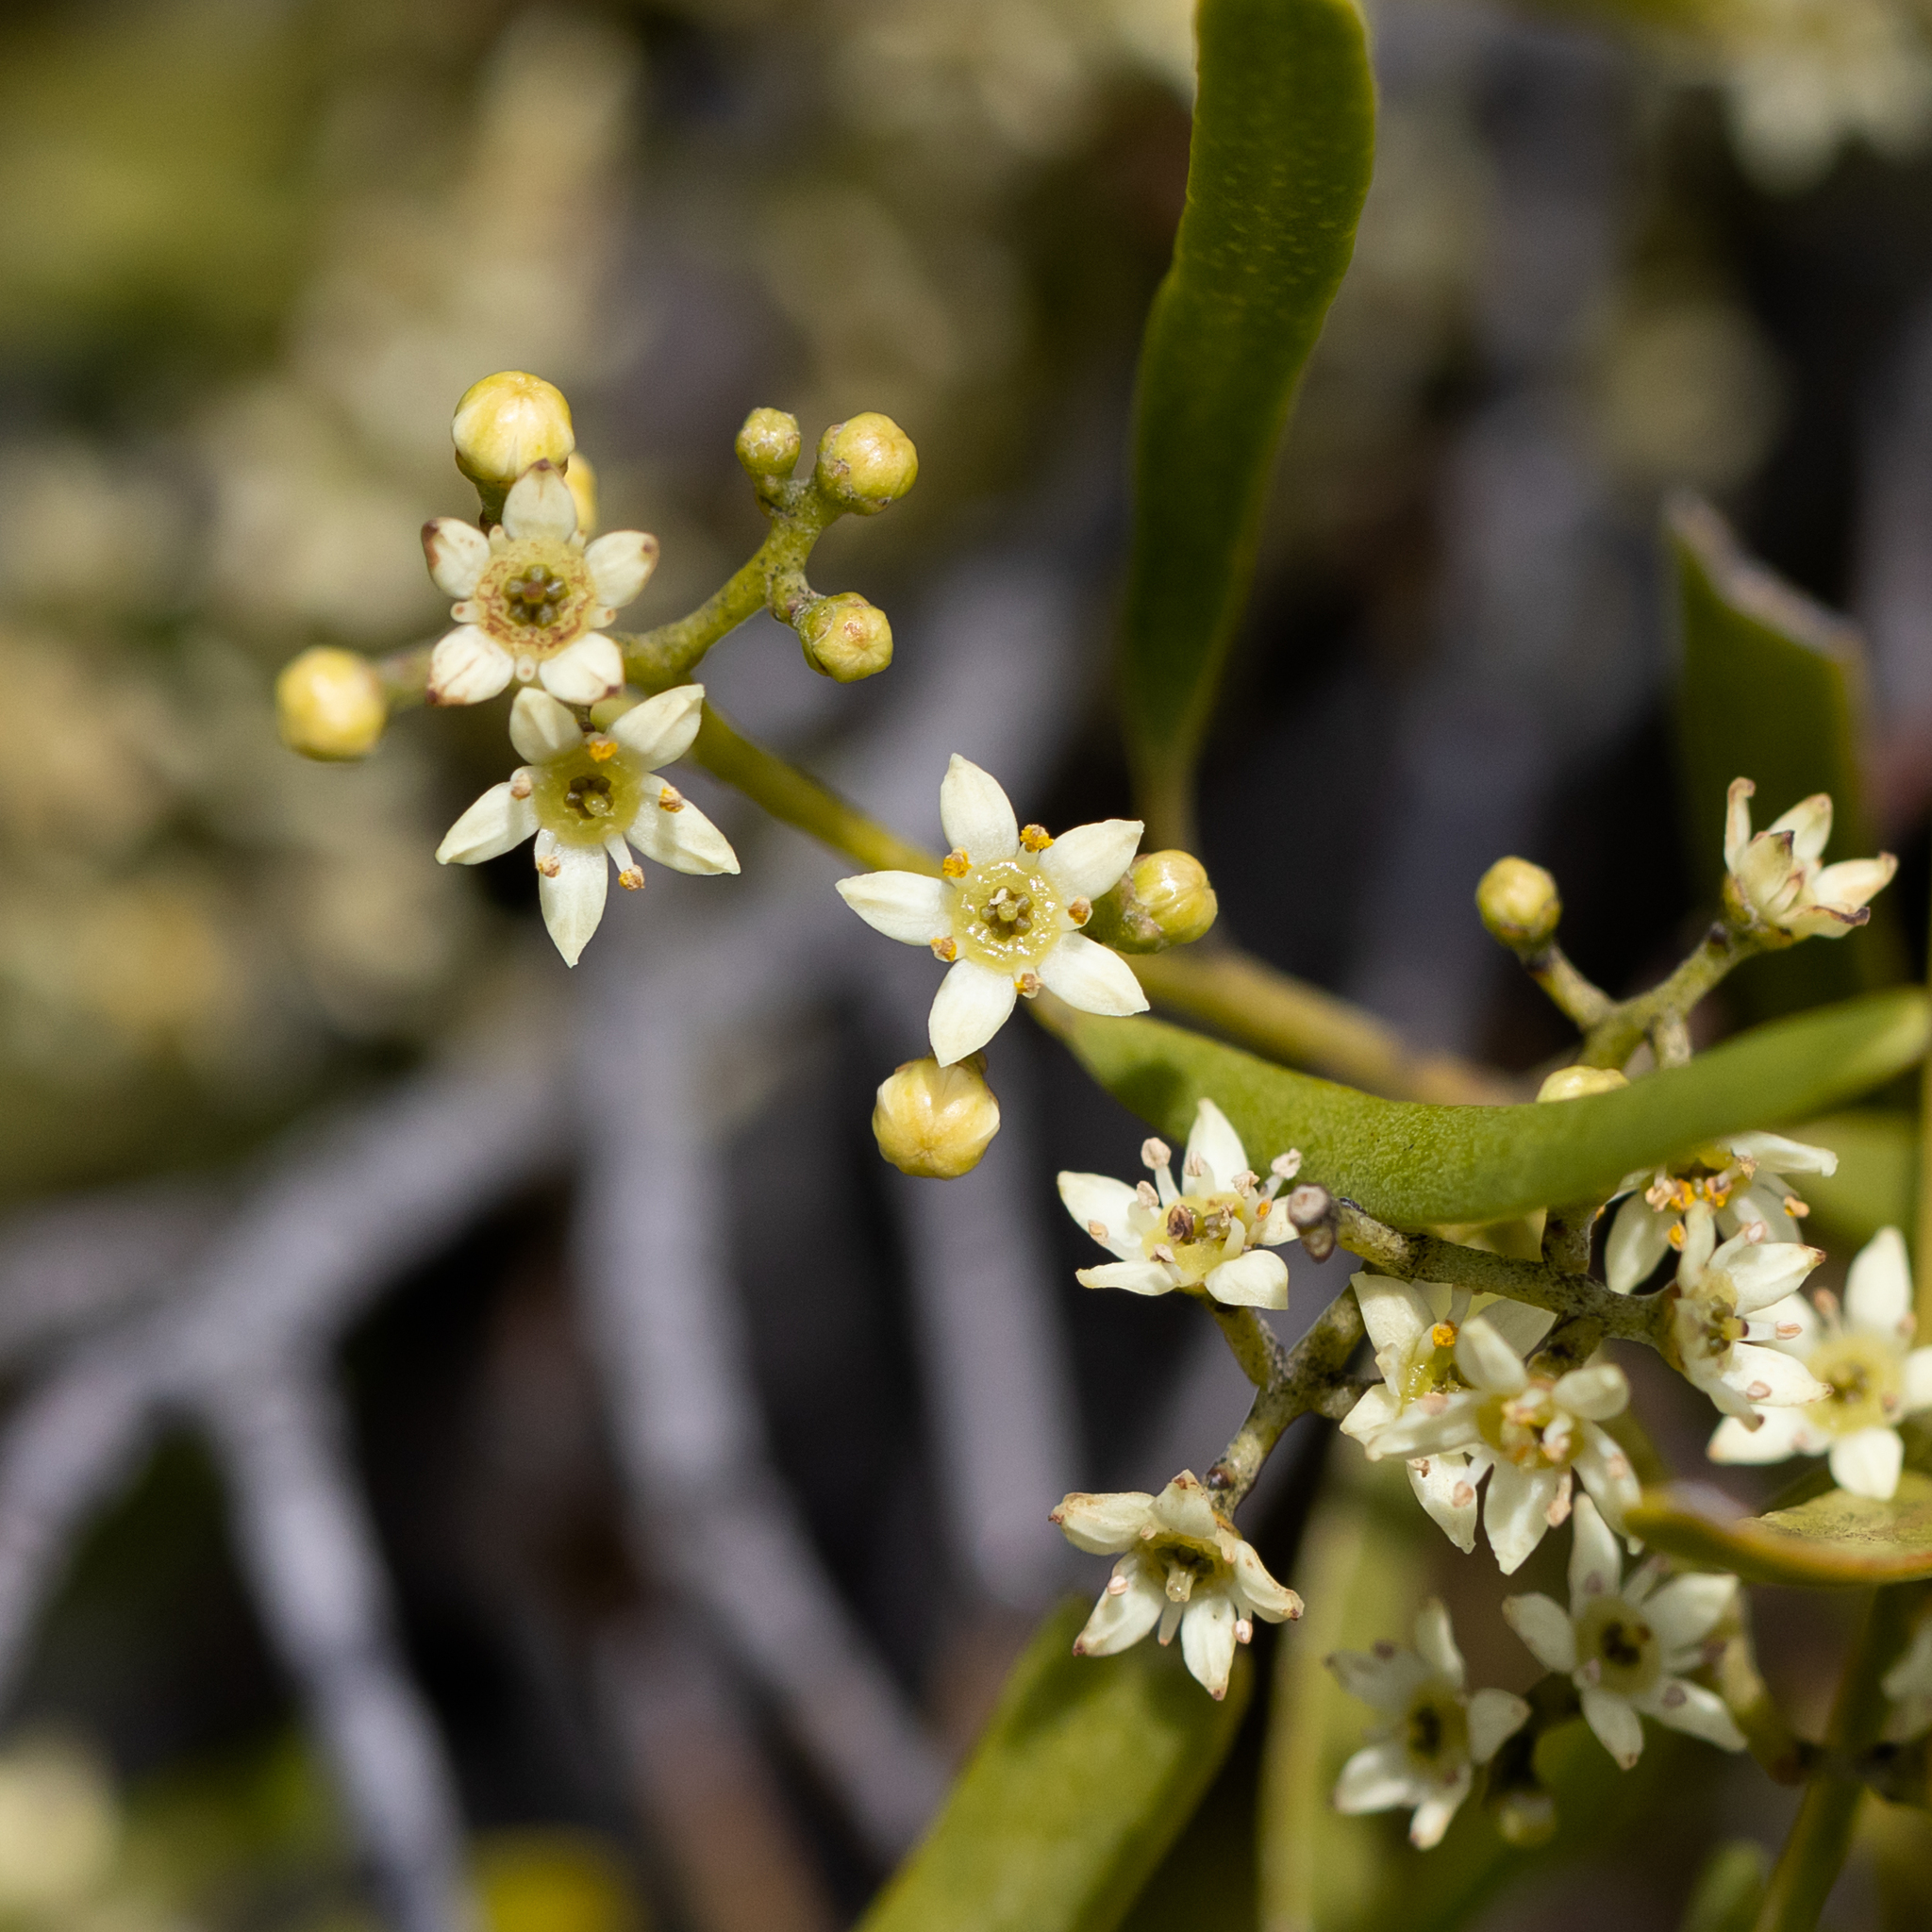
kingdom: Plantae
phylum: Tracheophyta
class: Magnoliopsida
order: Sapindales
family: Rutaceae
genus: Geijera
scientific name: Geijera linearifolia
